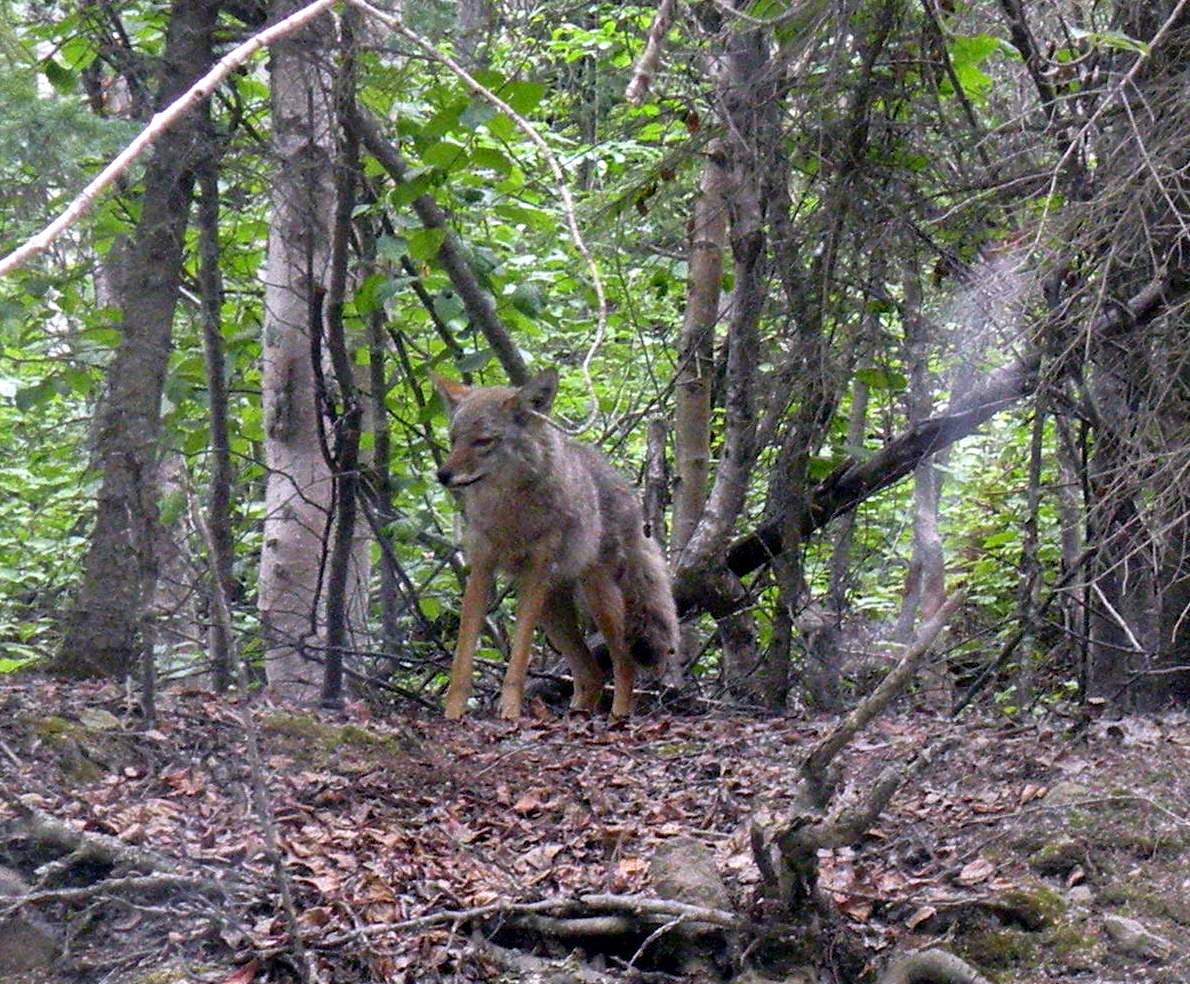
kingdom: Animalia
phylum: Chordata
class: Mammalia
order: Carnivora
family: Canidae
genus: Canis
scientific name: Canis latrans
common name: Coyote
